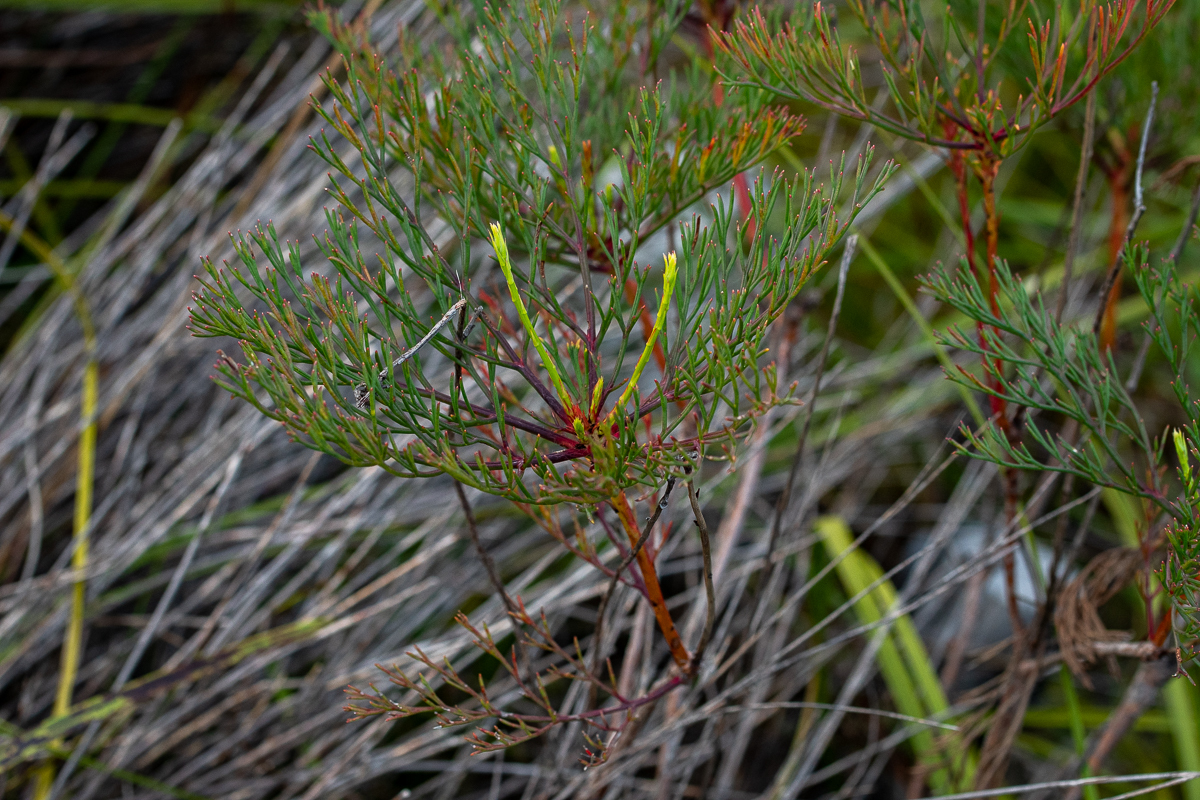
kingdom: Plantae
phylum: Tracheophyta
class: Magnoliopsida
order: Proteales
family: Proteaceae
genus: Serruria
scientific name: Serruria elongata
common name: Long-stalk spiderhead
